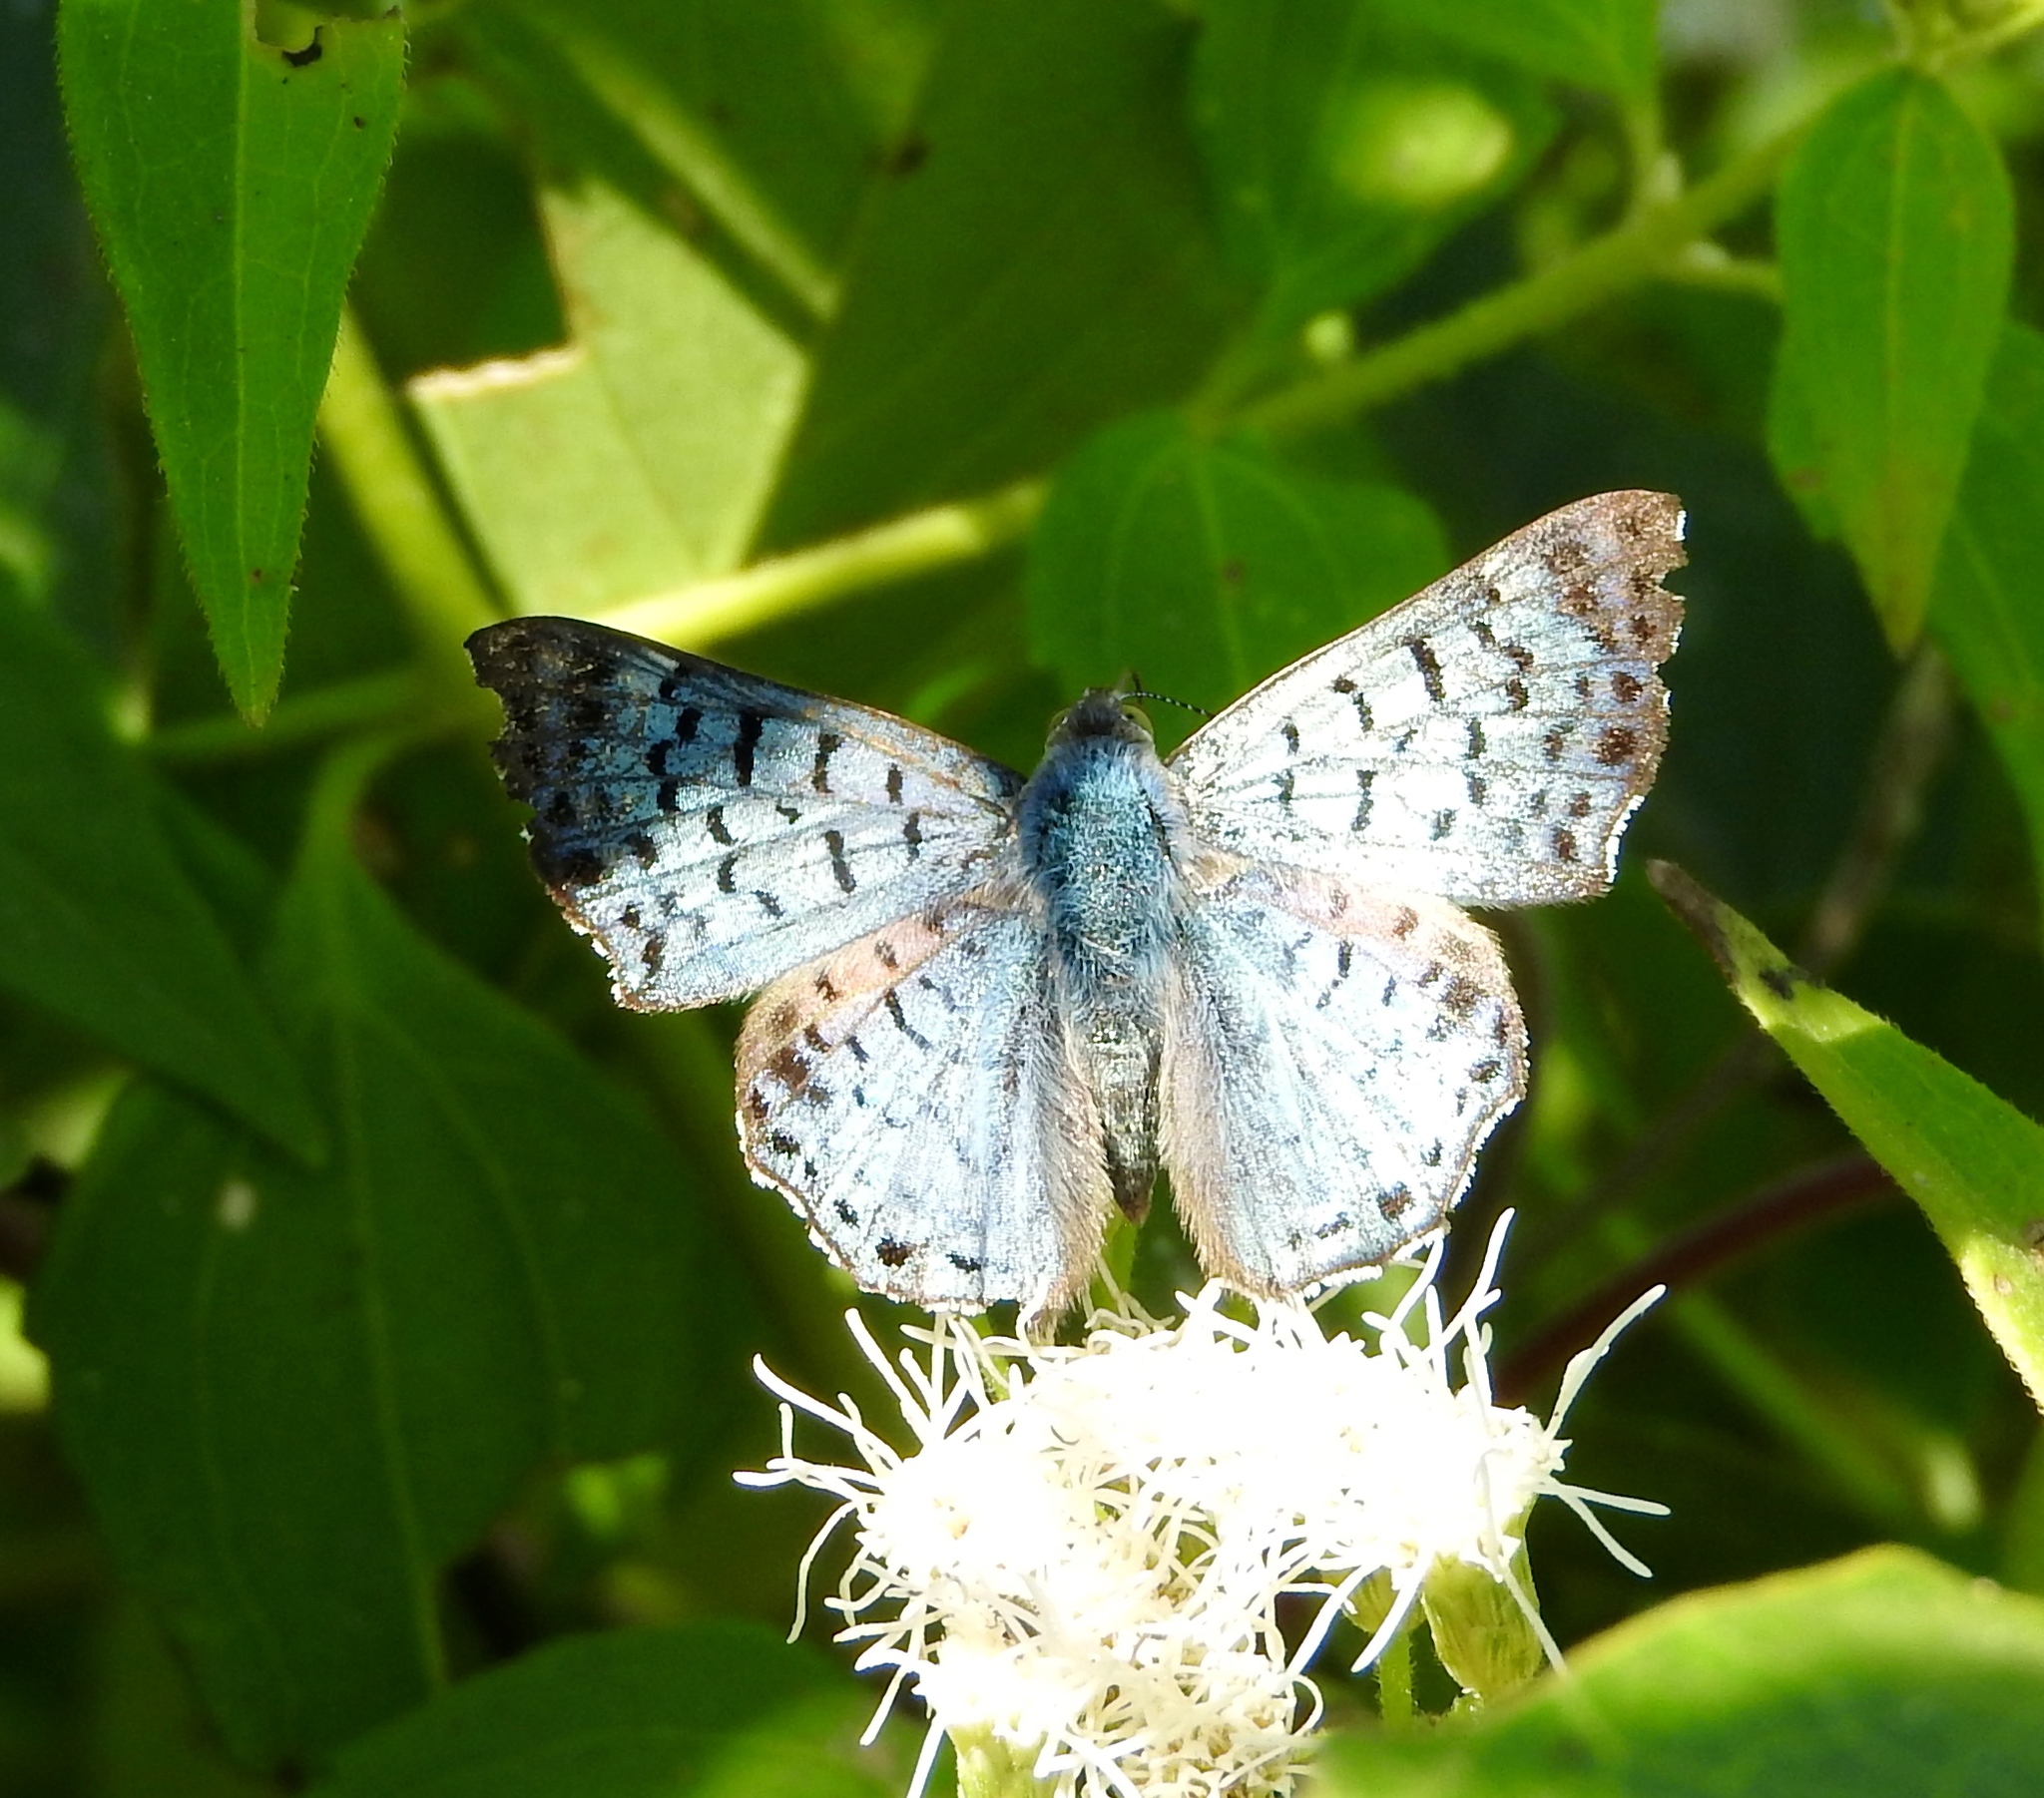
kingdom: Plantae
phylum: Tracheophyta
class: Magnoliopsida
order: Asterales
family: Asteraceae
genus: Chromolaena
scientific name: Chromolaena odorata
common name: Siamweed
